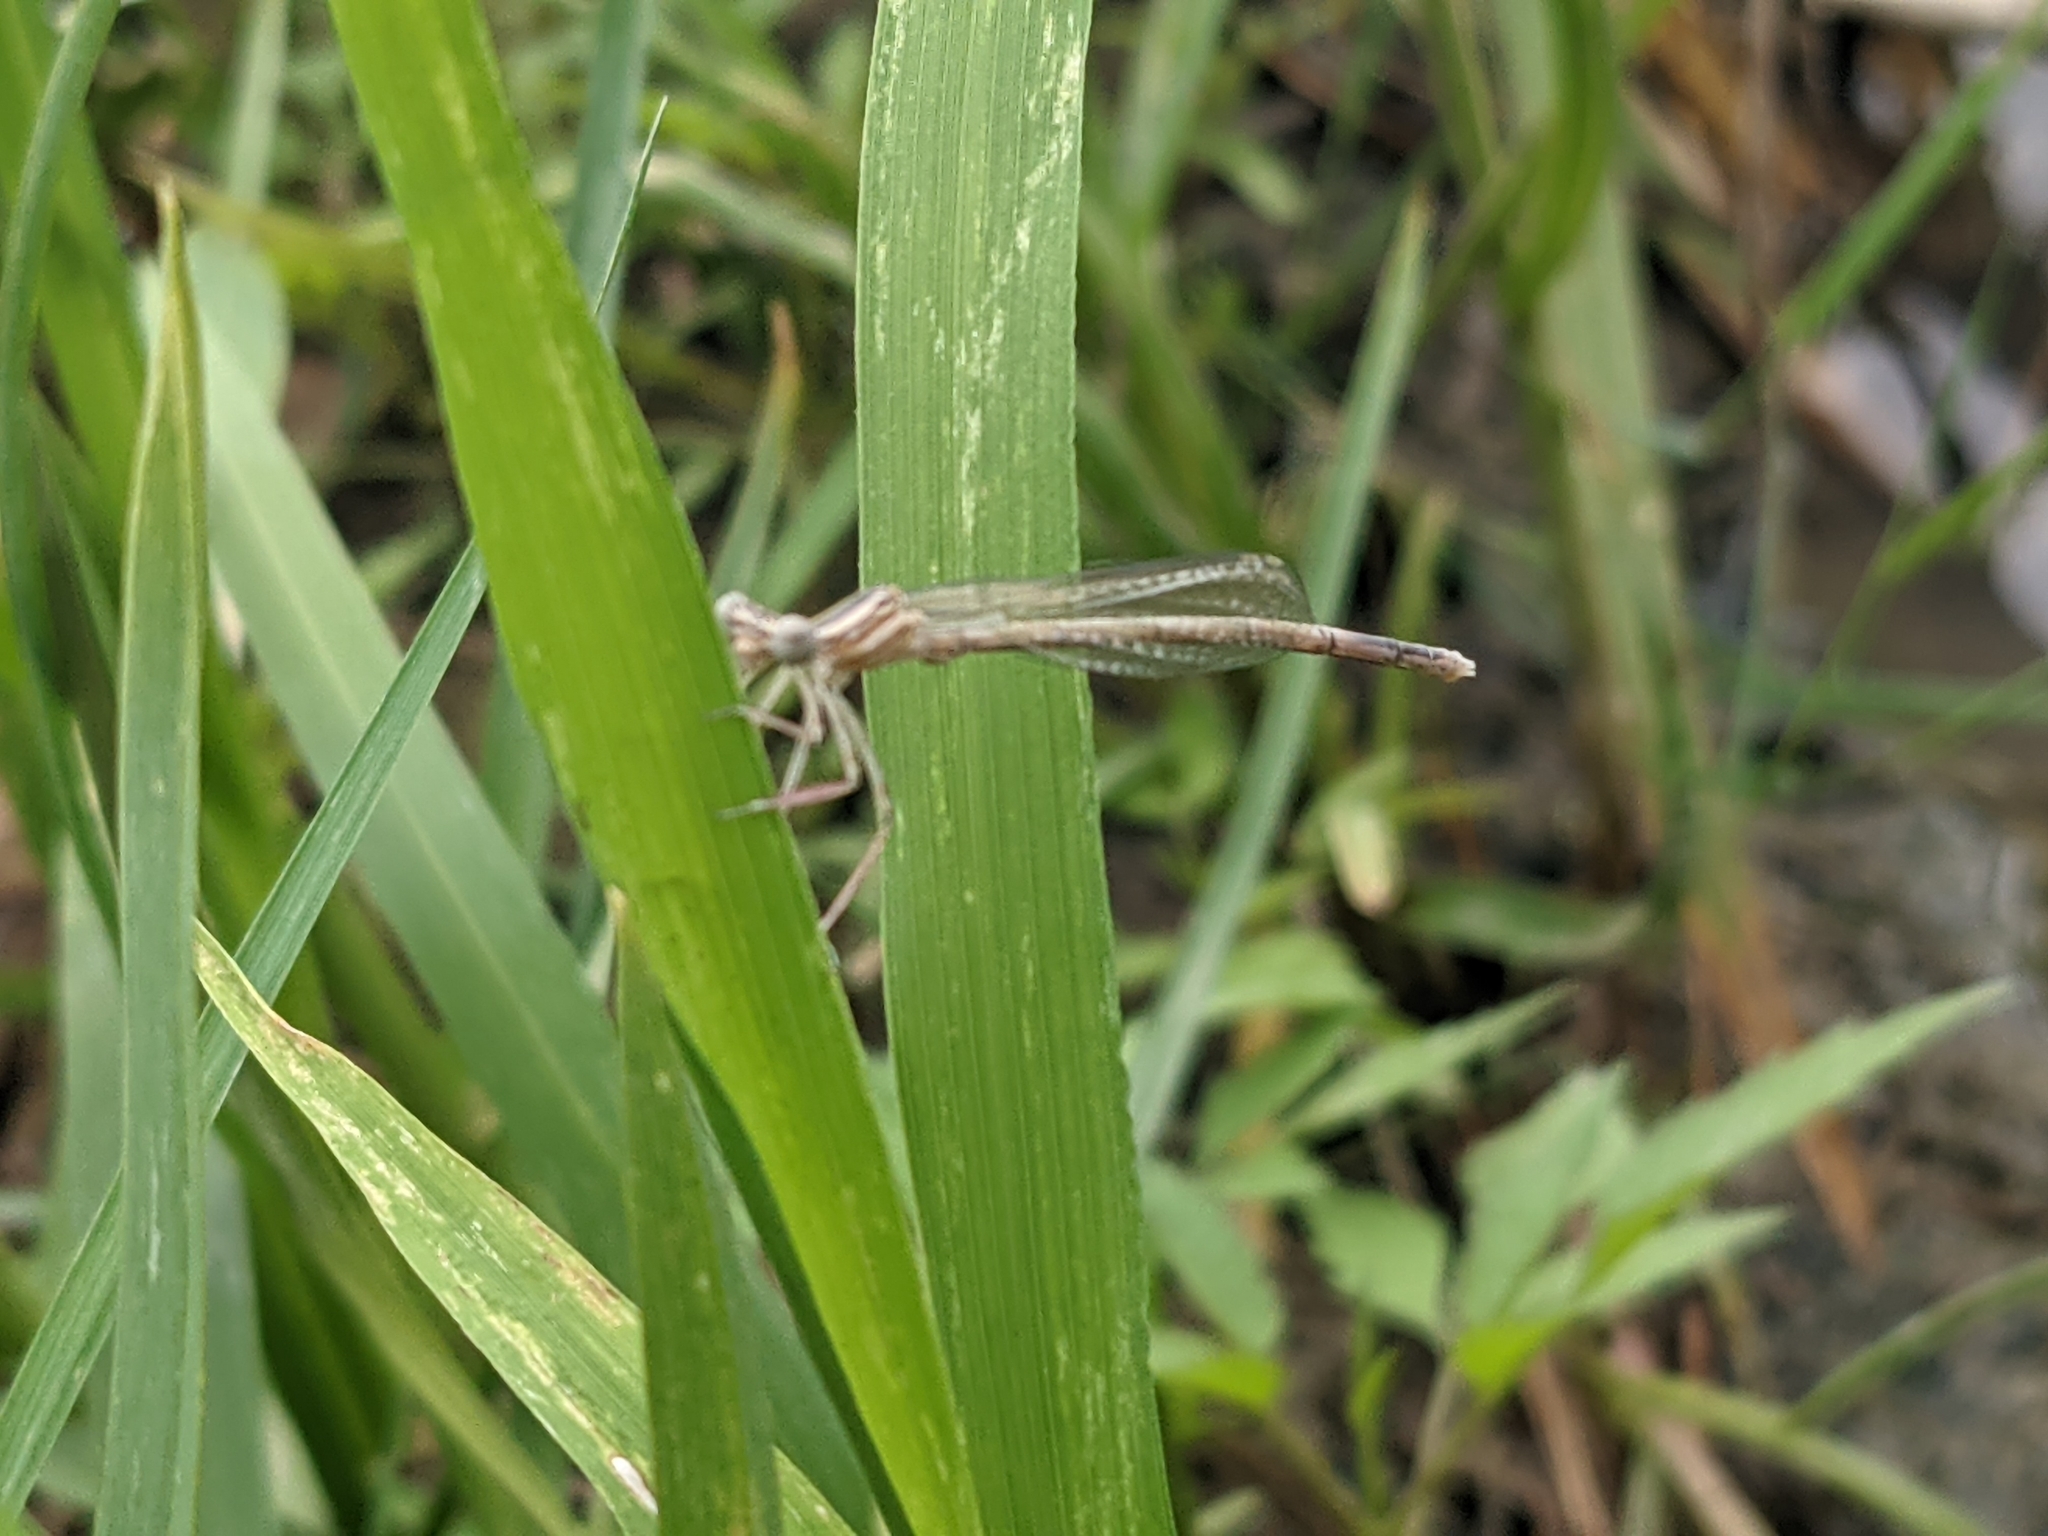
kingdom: Animalia
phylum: Arthropoda
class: Insecta
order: Odonata
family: Platycnemididae
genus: Platycnemis
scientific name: Platycnemis pennipes
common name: White-legged damselfly
